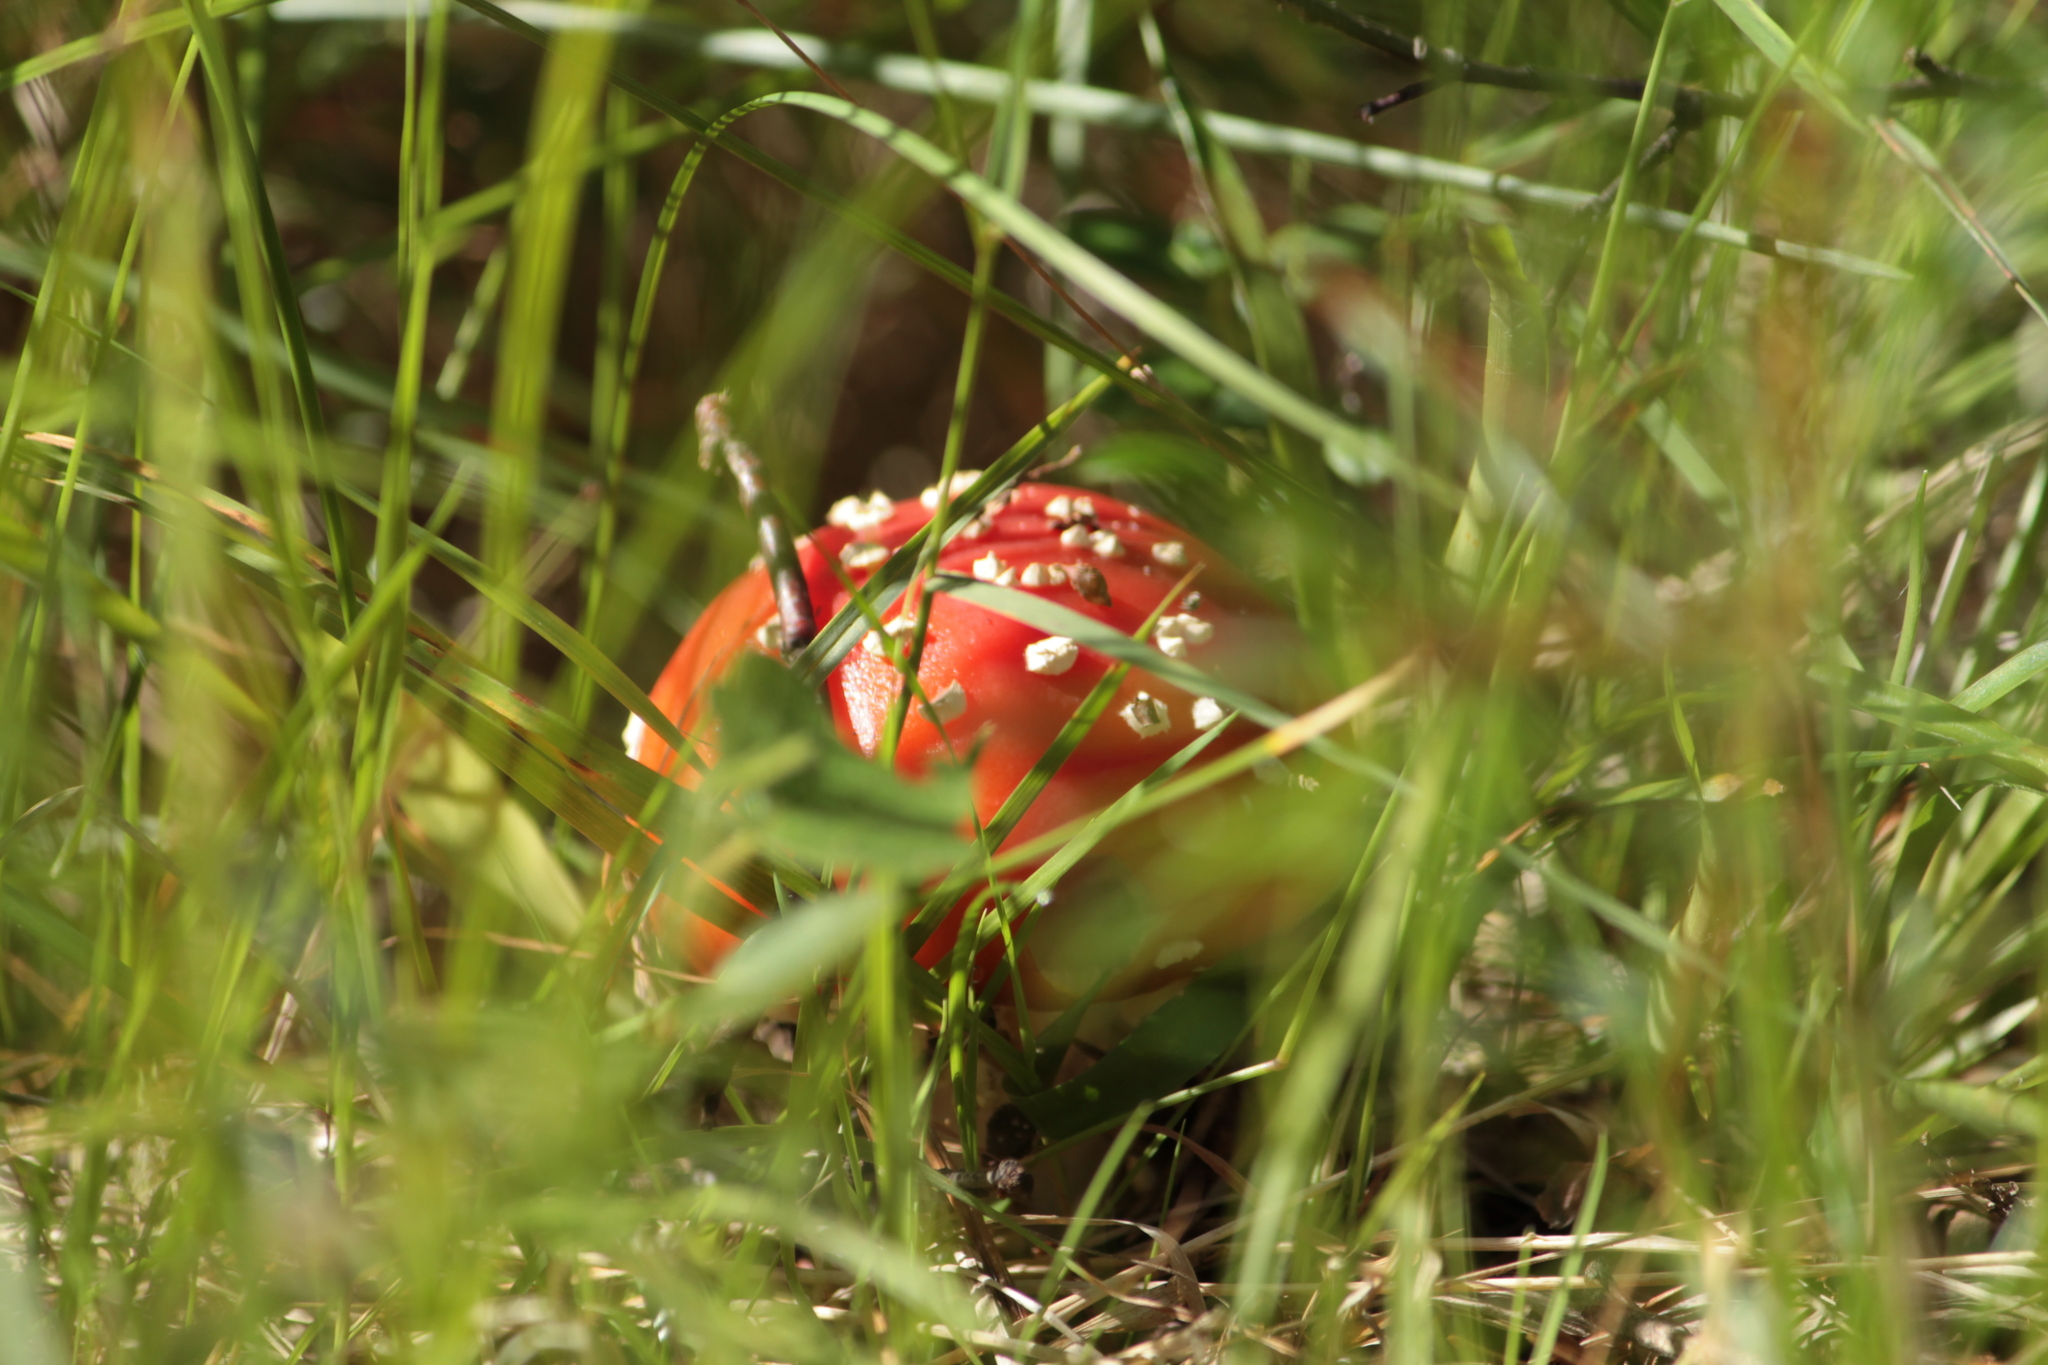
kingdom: Fungi
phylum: Basidiomycota
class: Agaricomycetes
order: Agaricales
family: Amanitaceae
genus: Amanita
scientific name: Amanita muscaria
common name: Fly agaric
